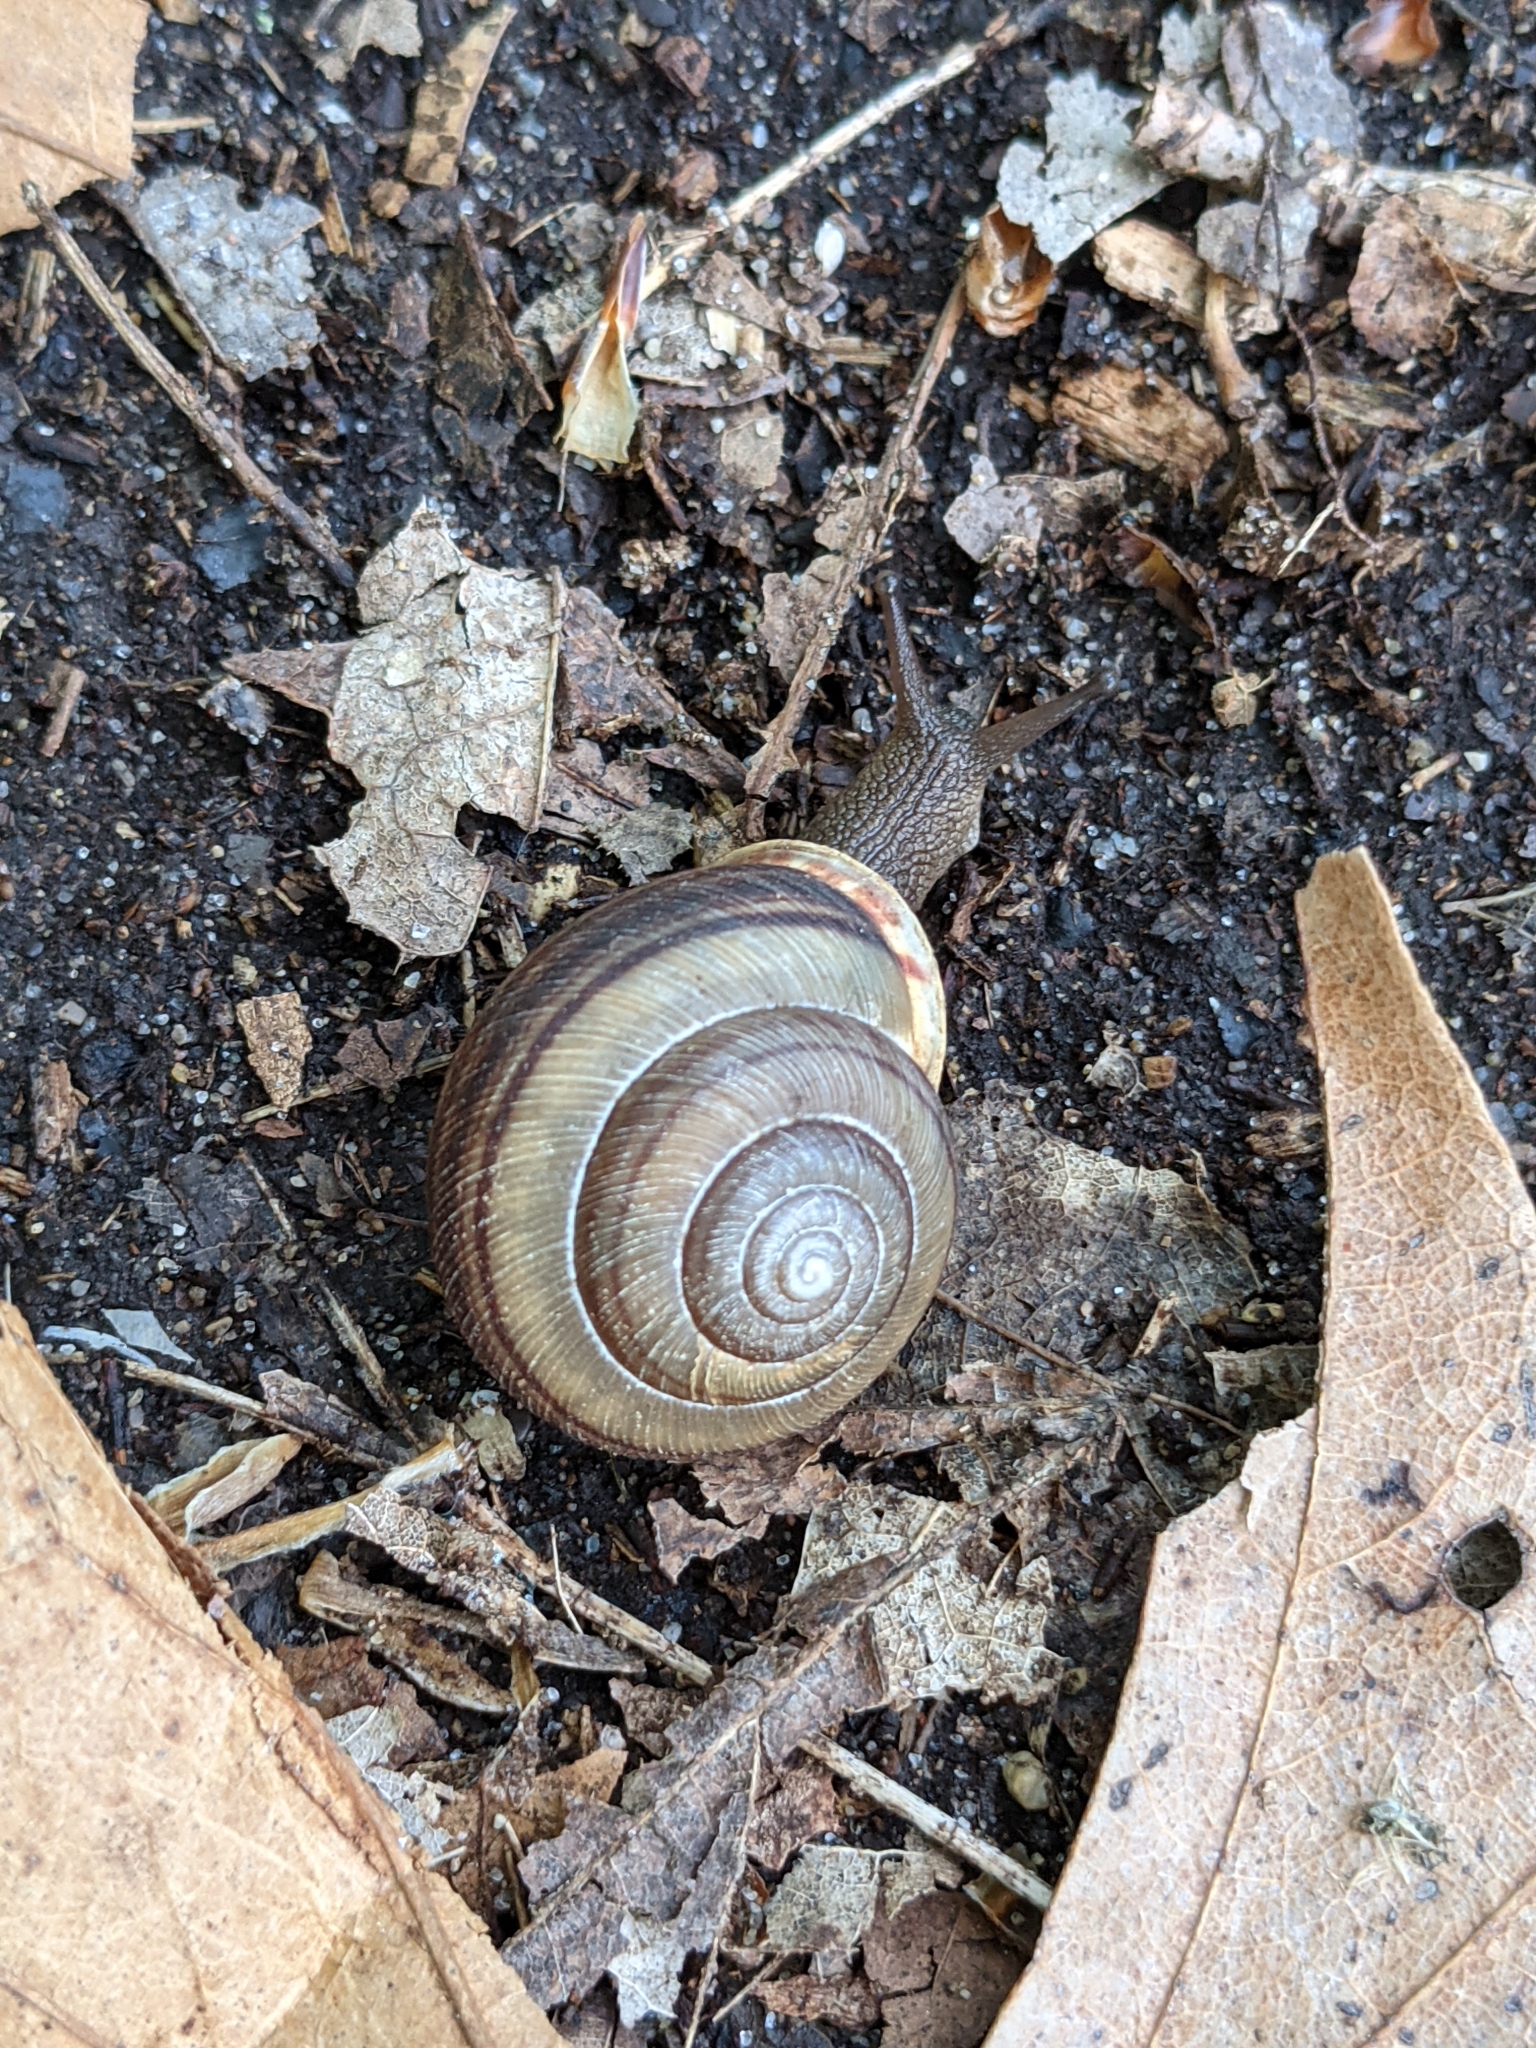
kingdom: Animalia
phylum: Mollusca
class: Gastropoda
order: Stylommatophora
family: Polygyridae
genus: Webbhelix
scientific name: Webbhelix multilineata
